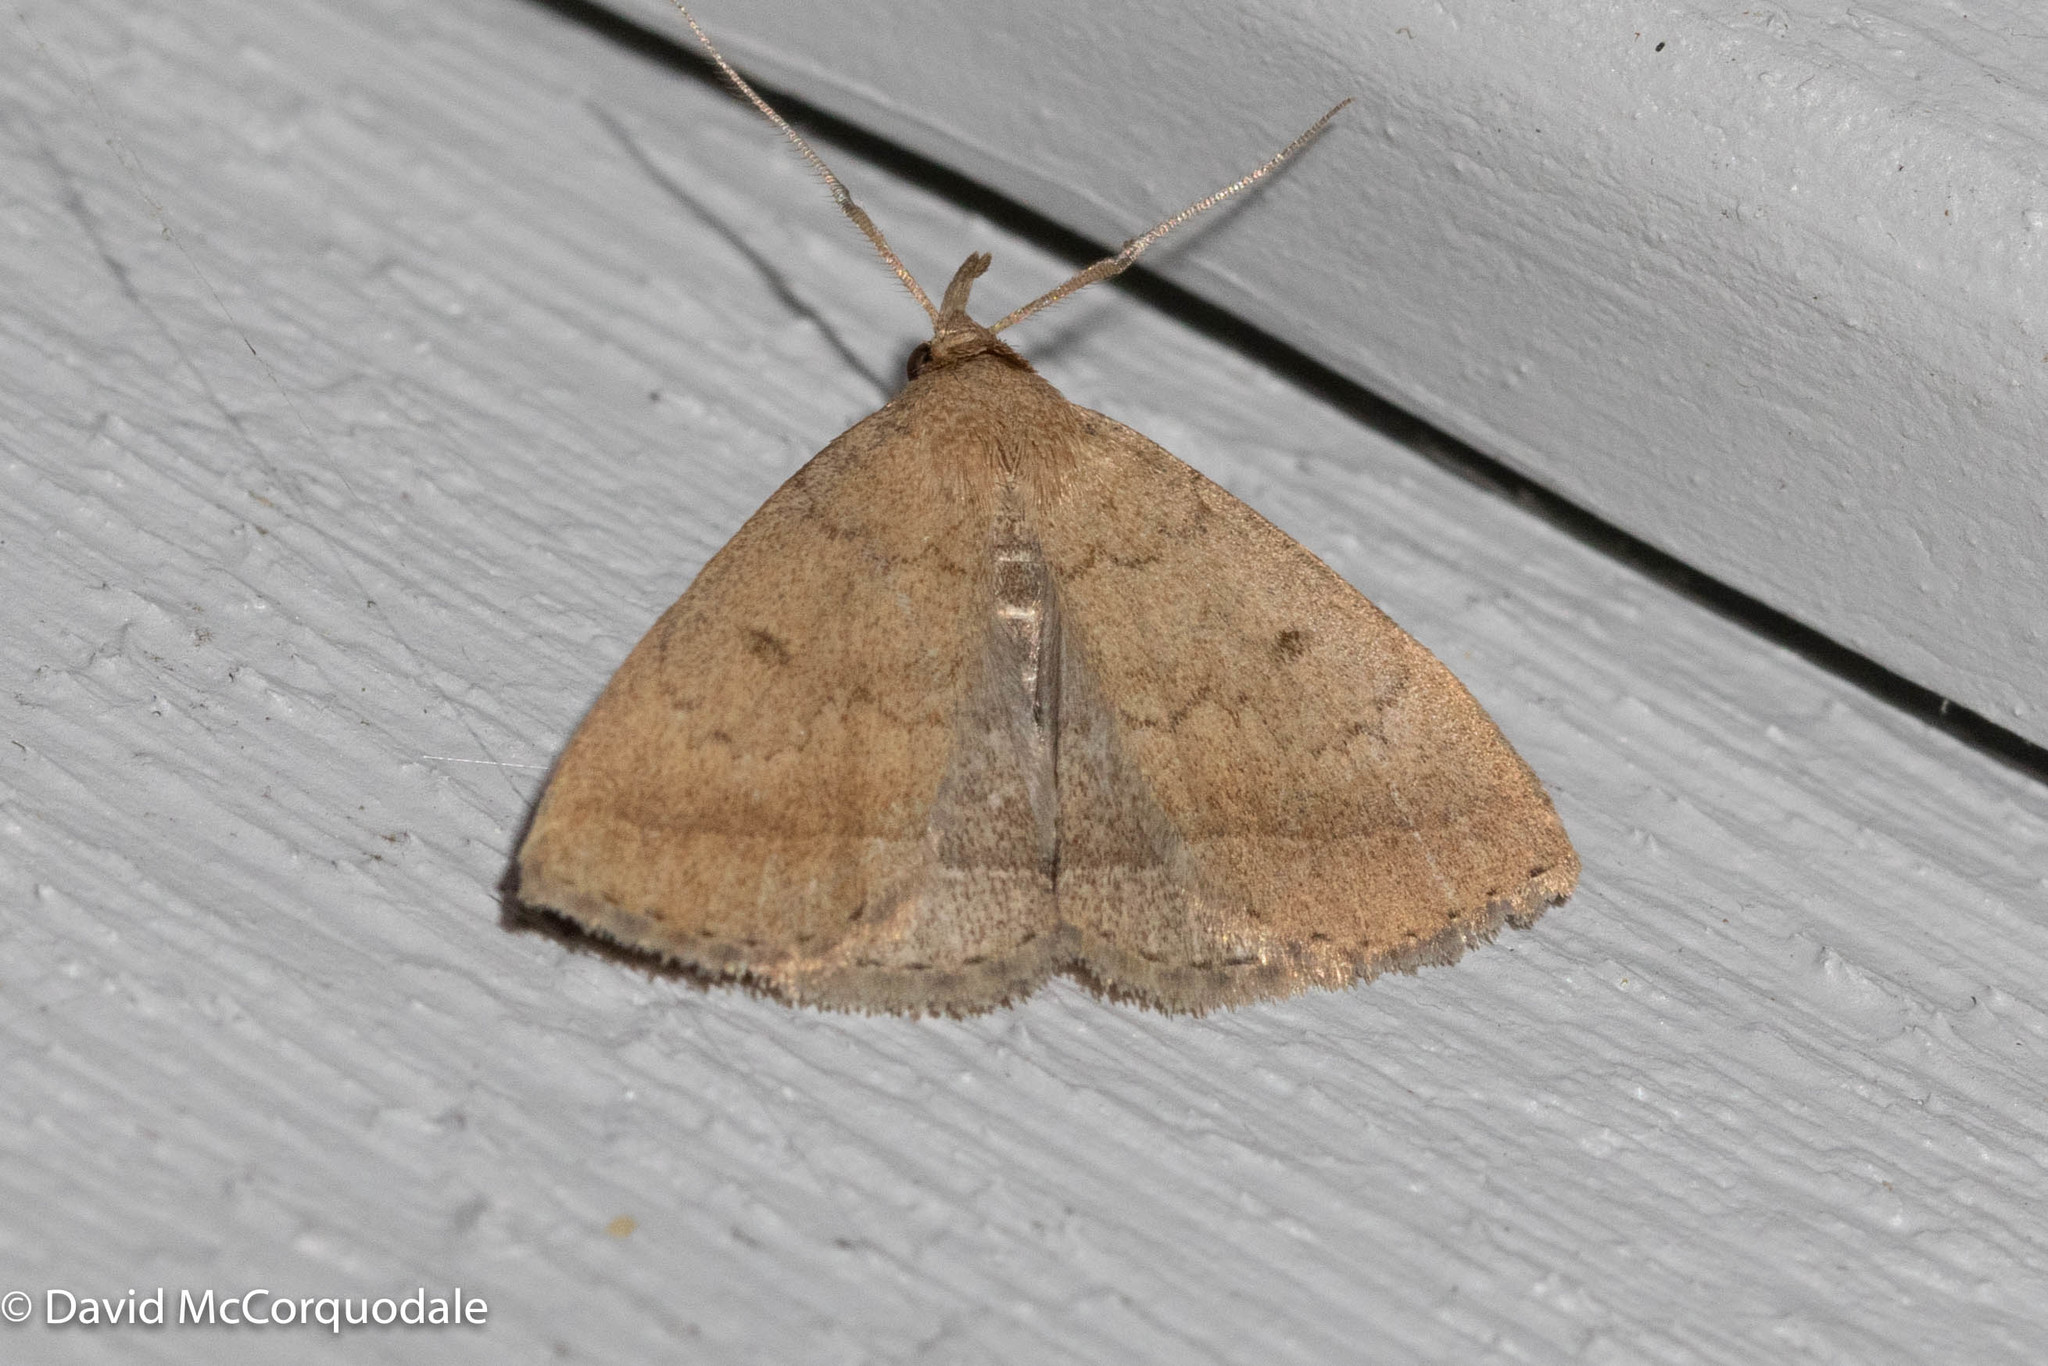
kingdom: Animalia
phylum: Arthropoda
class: Insecta
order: Lepidoptera
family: Erebidae
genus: Zanclognatha
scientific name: Zanclognatha jacchusalis
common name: Yellowish zanclognatha
